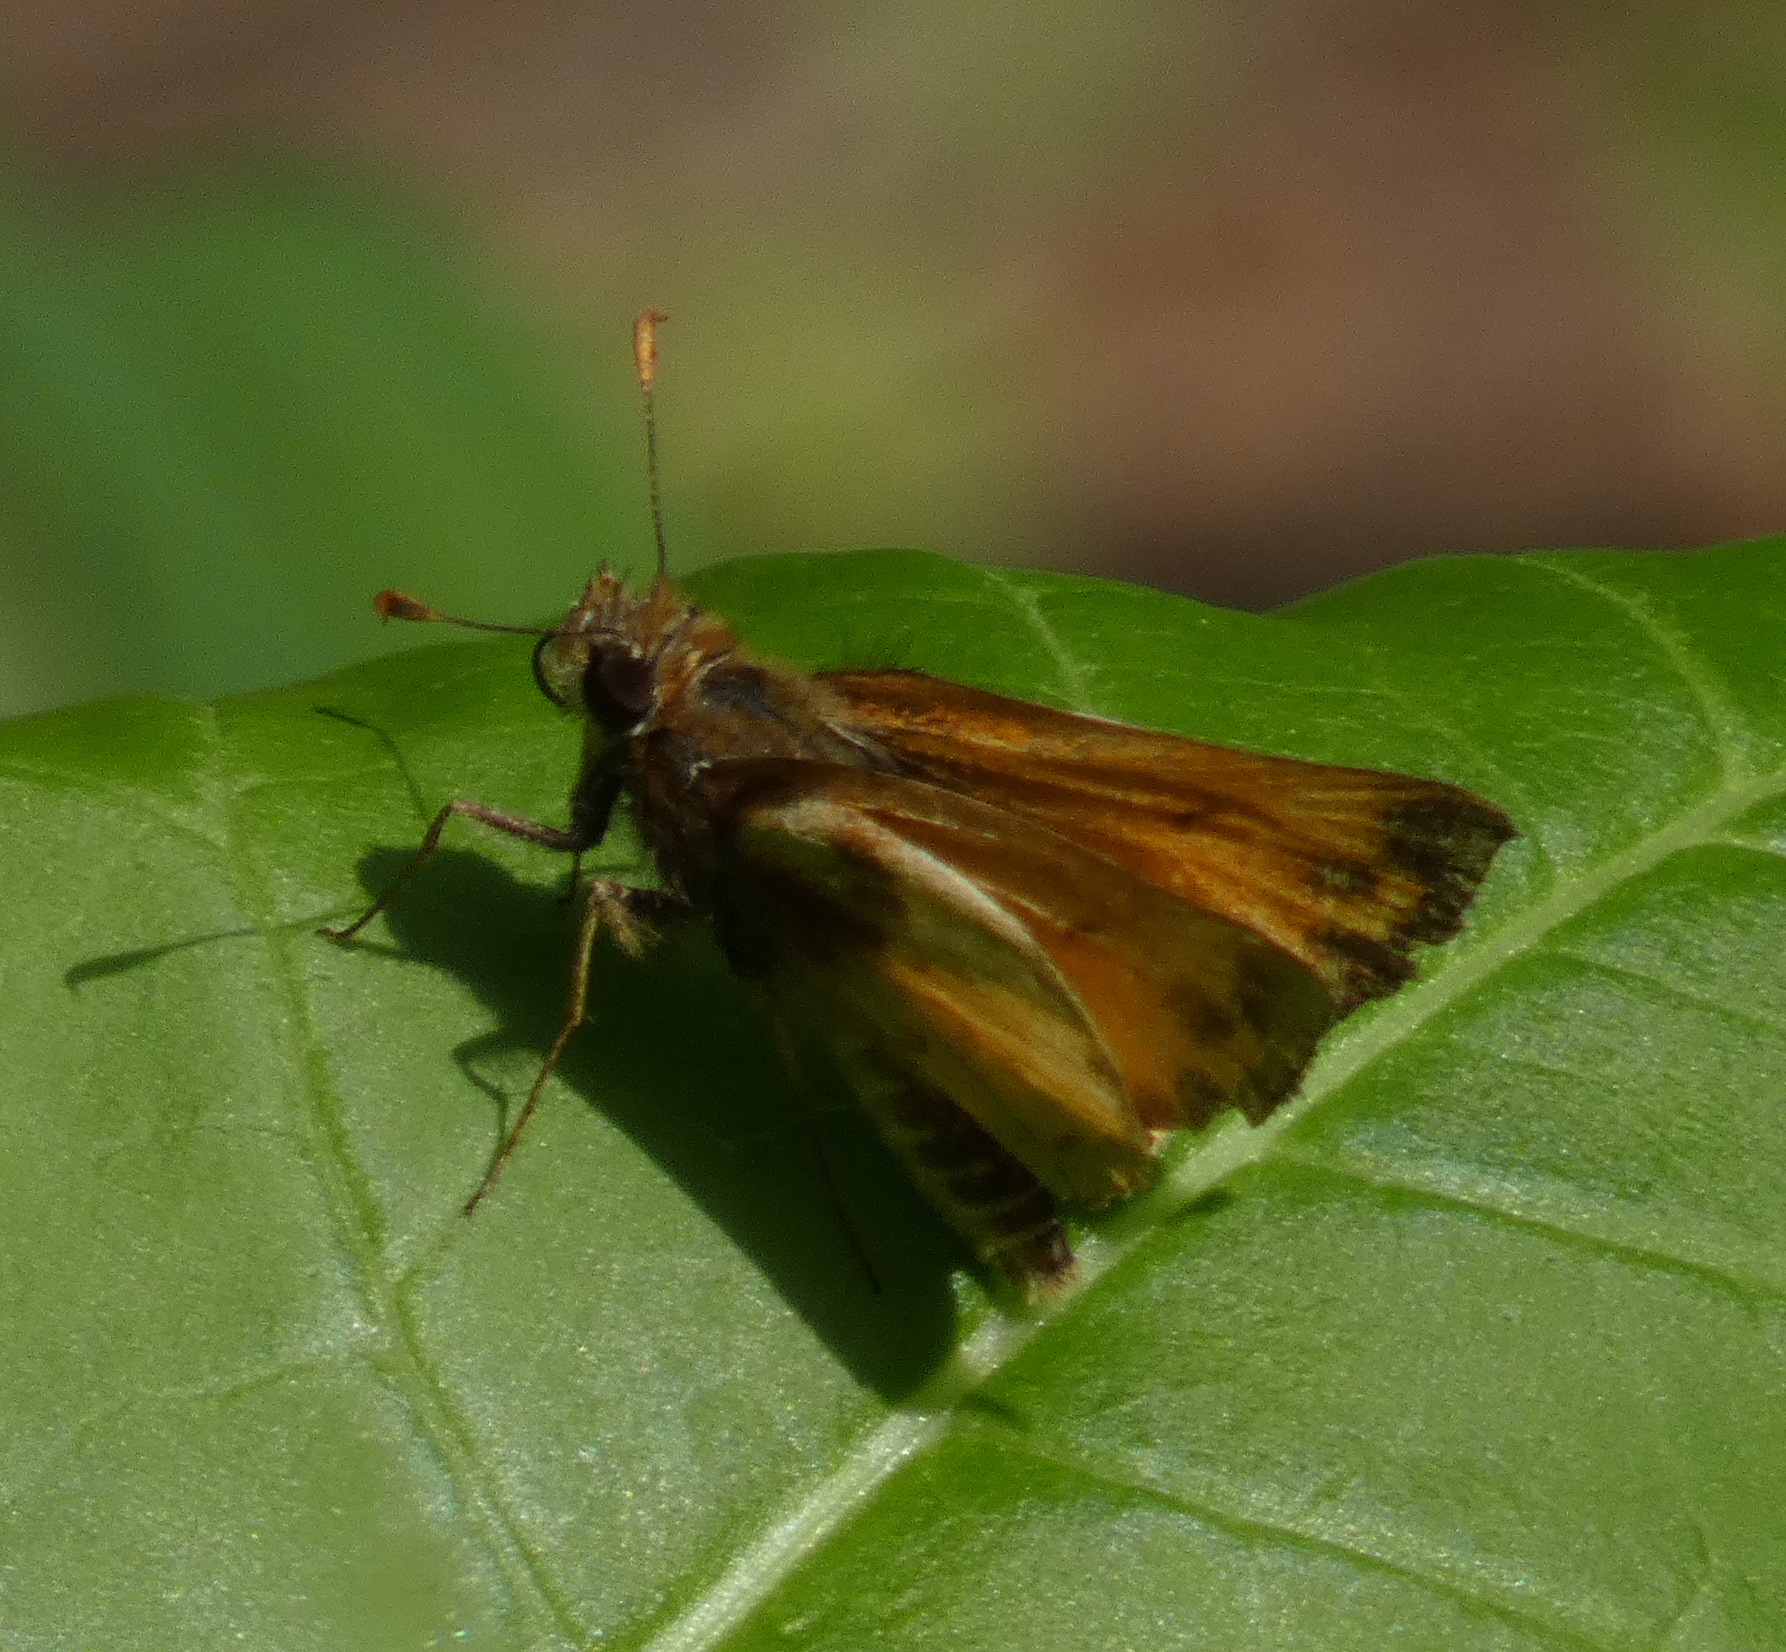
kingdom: Animalia
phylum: Arthropoda
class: Insecta
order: Lepidoptera
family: Hesperiidae
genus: Lon
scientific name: Lon zabulon
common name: Zabulon skipper
